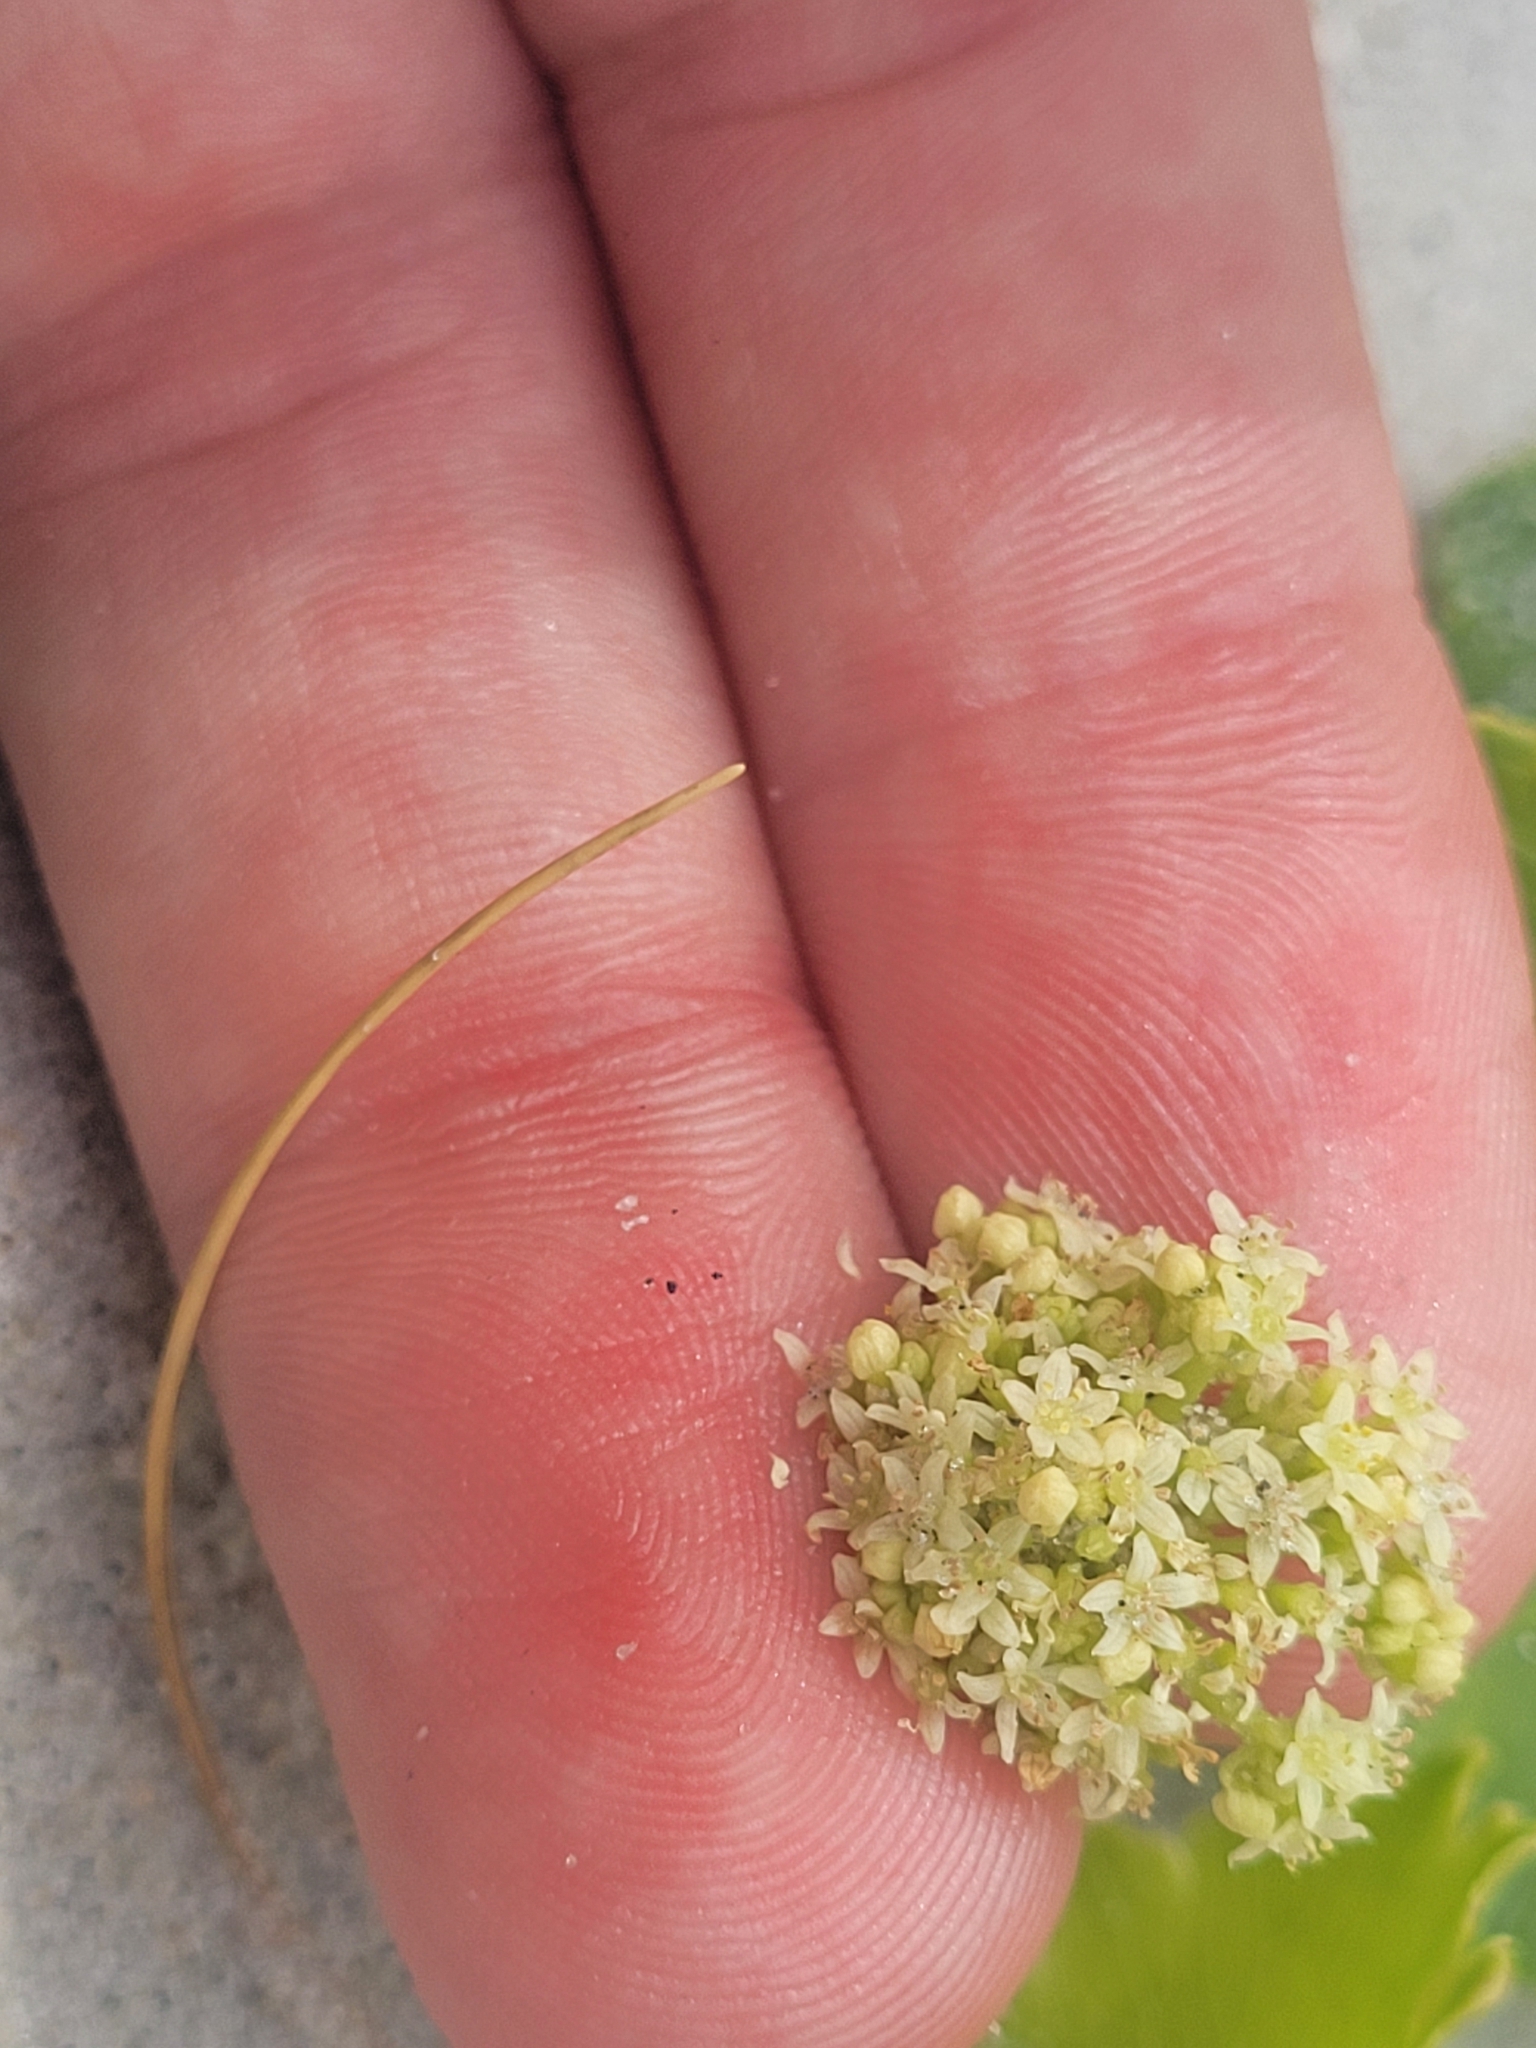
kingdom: Plantae
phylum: Tracheophyta
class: Magnoliopsida
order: Apiales
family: Araliaceae
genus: Hydrocotyle
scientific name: Hydrocotyle bonariensis
